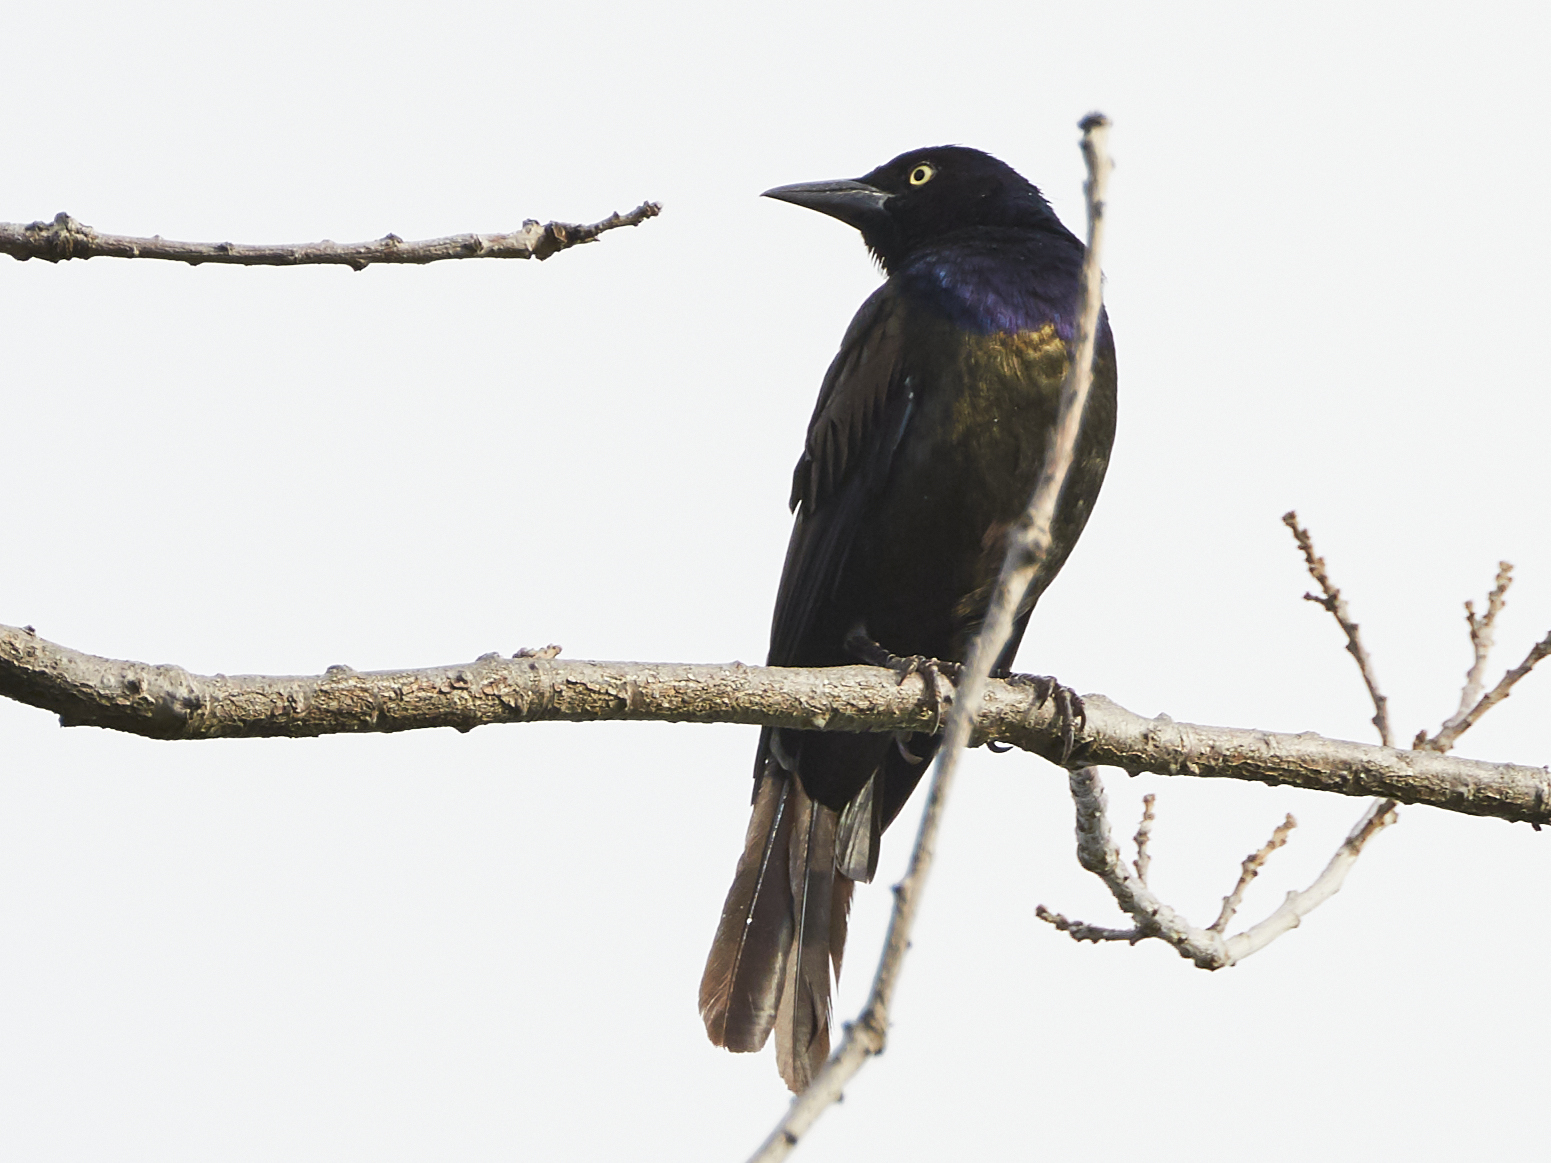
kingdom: Animalia
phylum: Chordata
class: Aves
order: Passeriformes
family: Icteridae
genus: Quiscalus
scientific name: Quiscalus quiscula
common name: Common grackle
